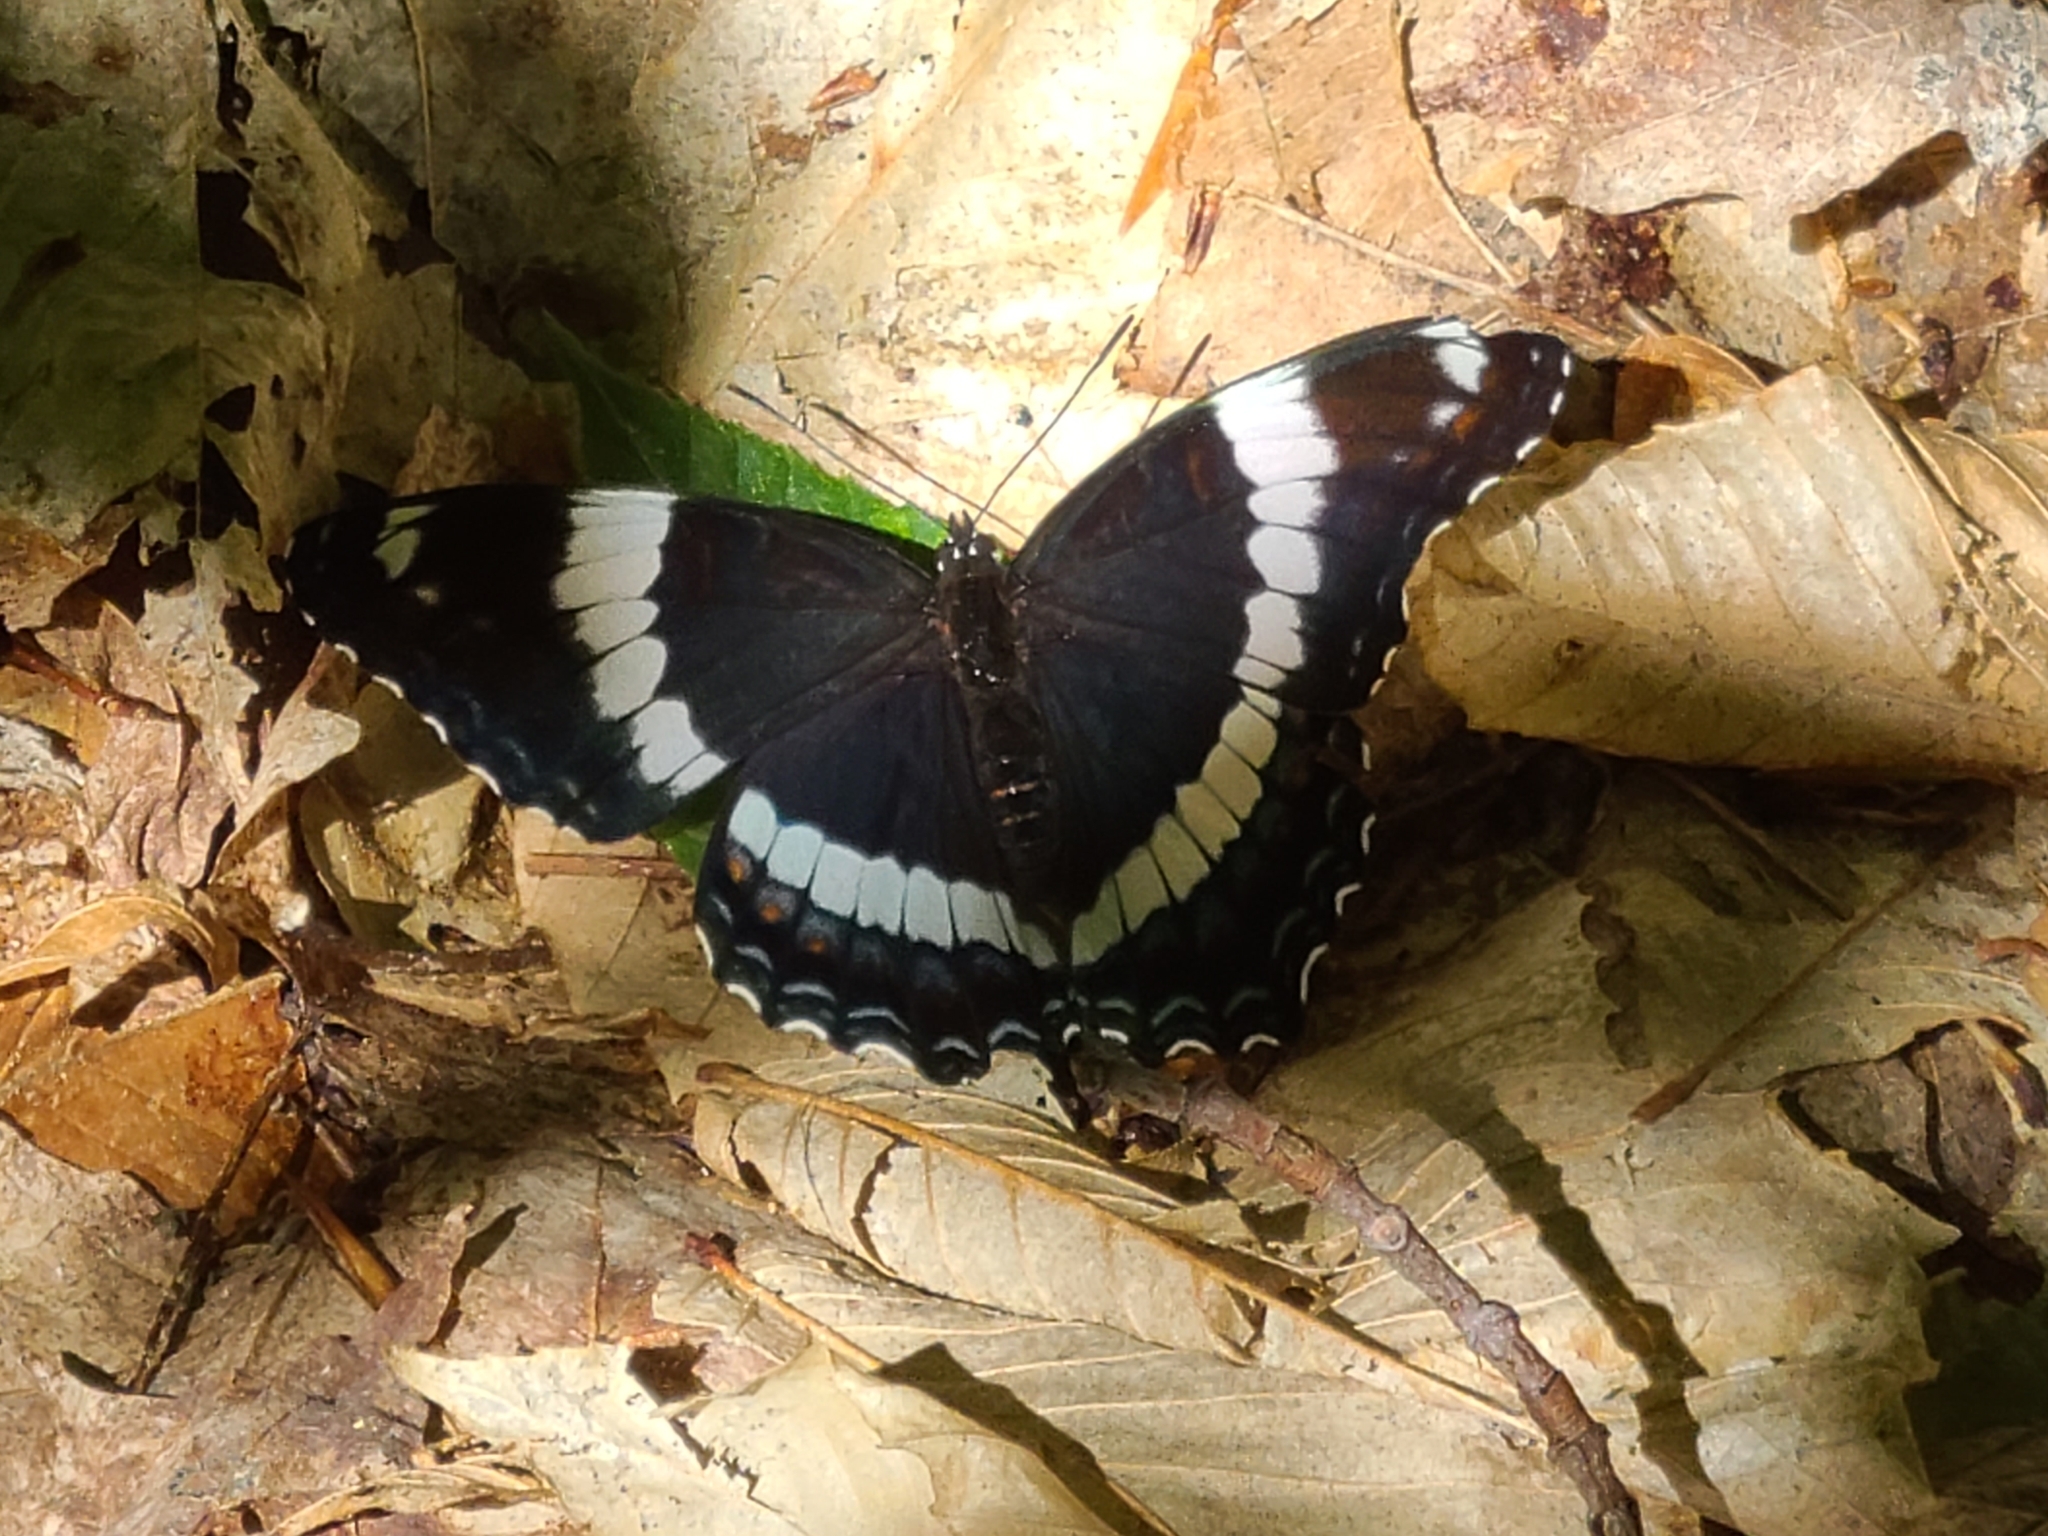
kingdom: Animalia
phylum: Arthropoda
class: Insecta
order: Lepidoptera
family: Nymphalidae
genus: Limenitis
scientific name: Limenitis arthemis
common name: Red-spotted admiral
